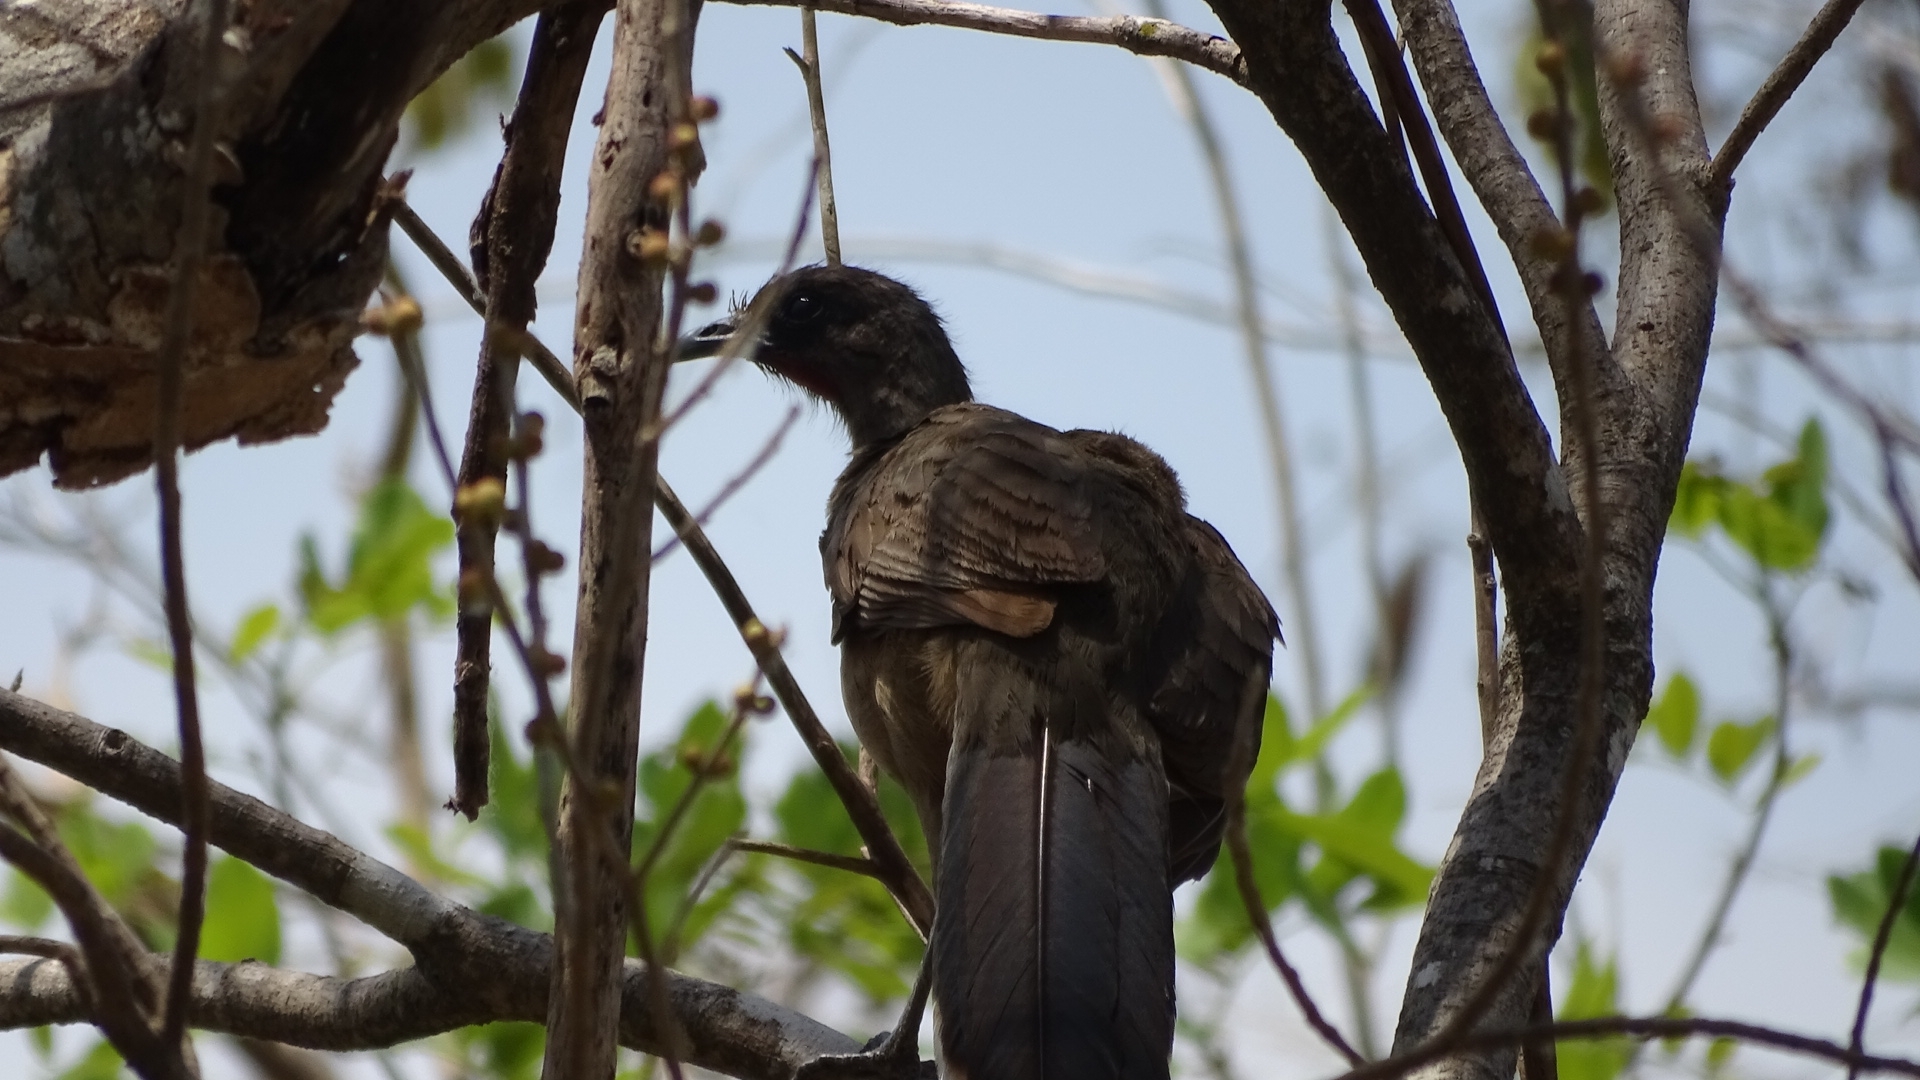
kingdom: Animalia
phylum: Chordata
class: Aves
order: Galliformes
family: Cracidae
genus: Ortalis
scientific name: Ortalis vetula
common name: Plain chachalaca
